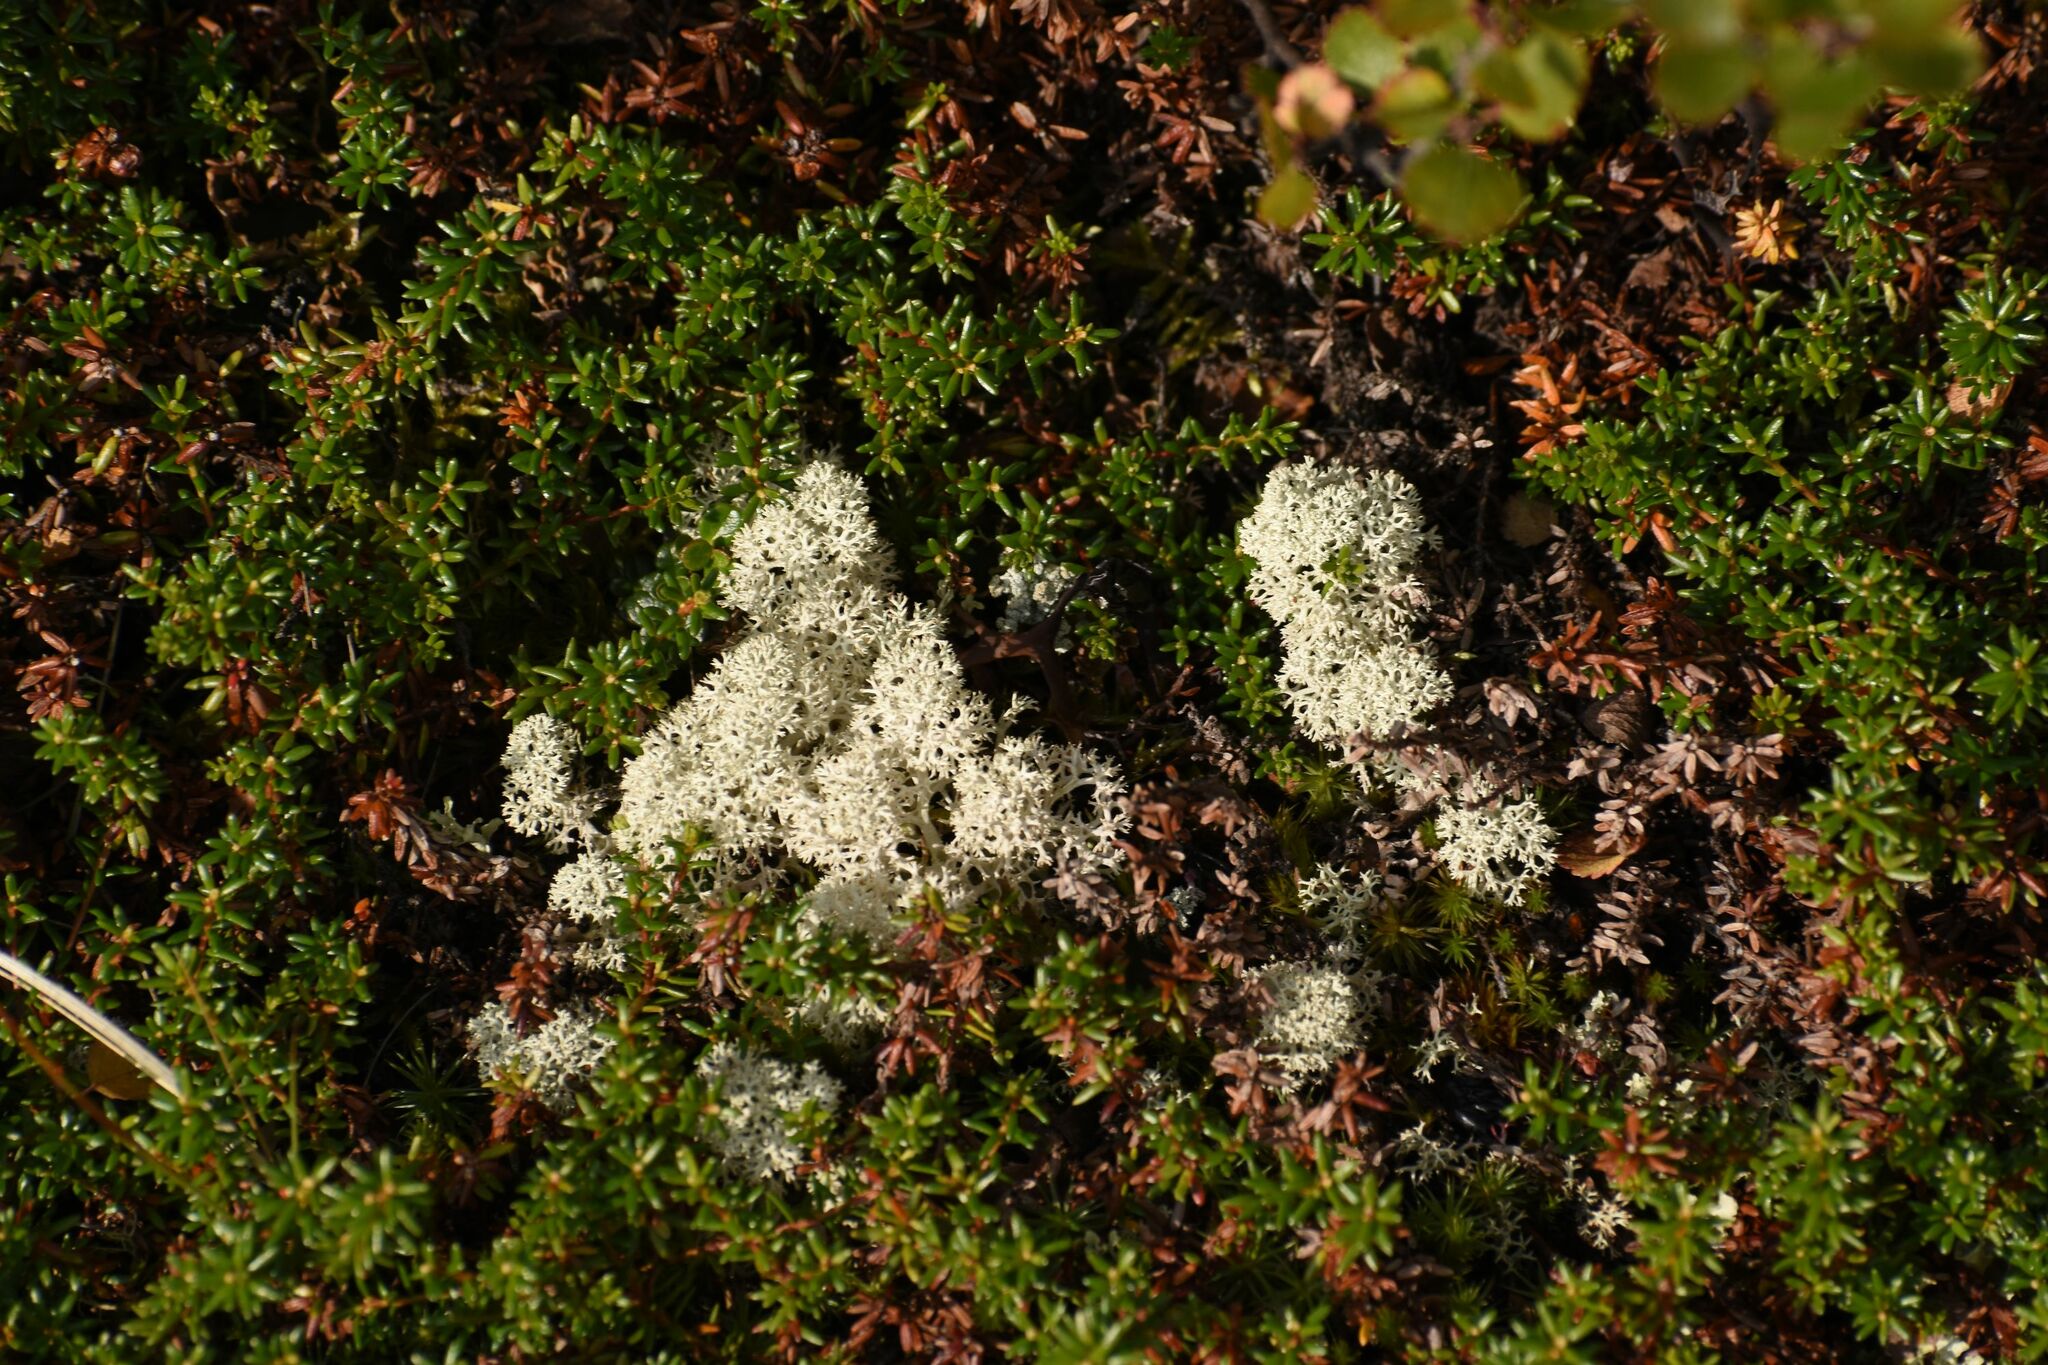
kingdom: Fungi
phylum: Ascomycota
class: Lecanoromycetes
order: Lecanorales
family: Cladoniaceae
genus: Cladonia
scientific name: Cladonia stellaris
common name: Star-tipped reindeer lichen
